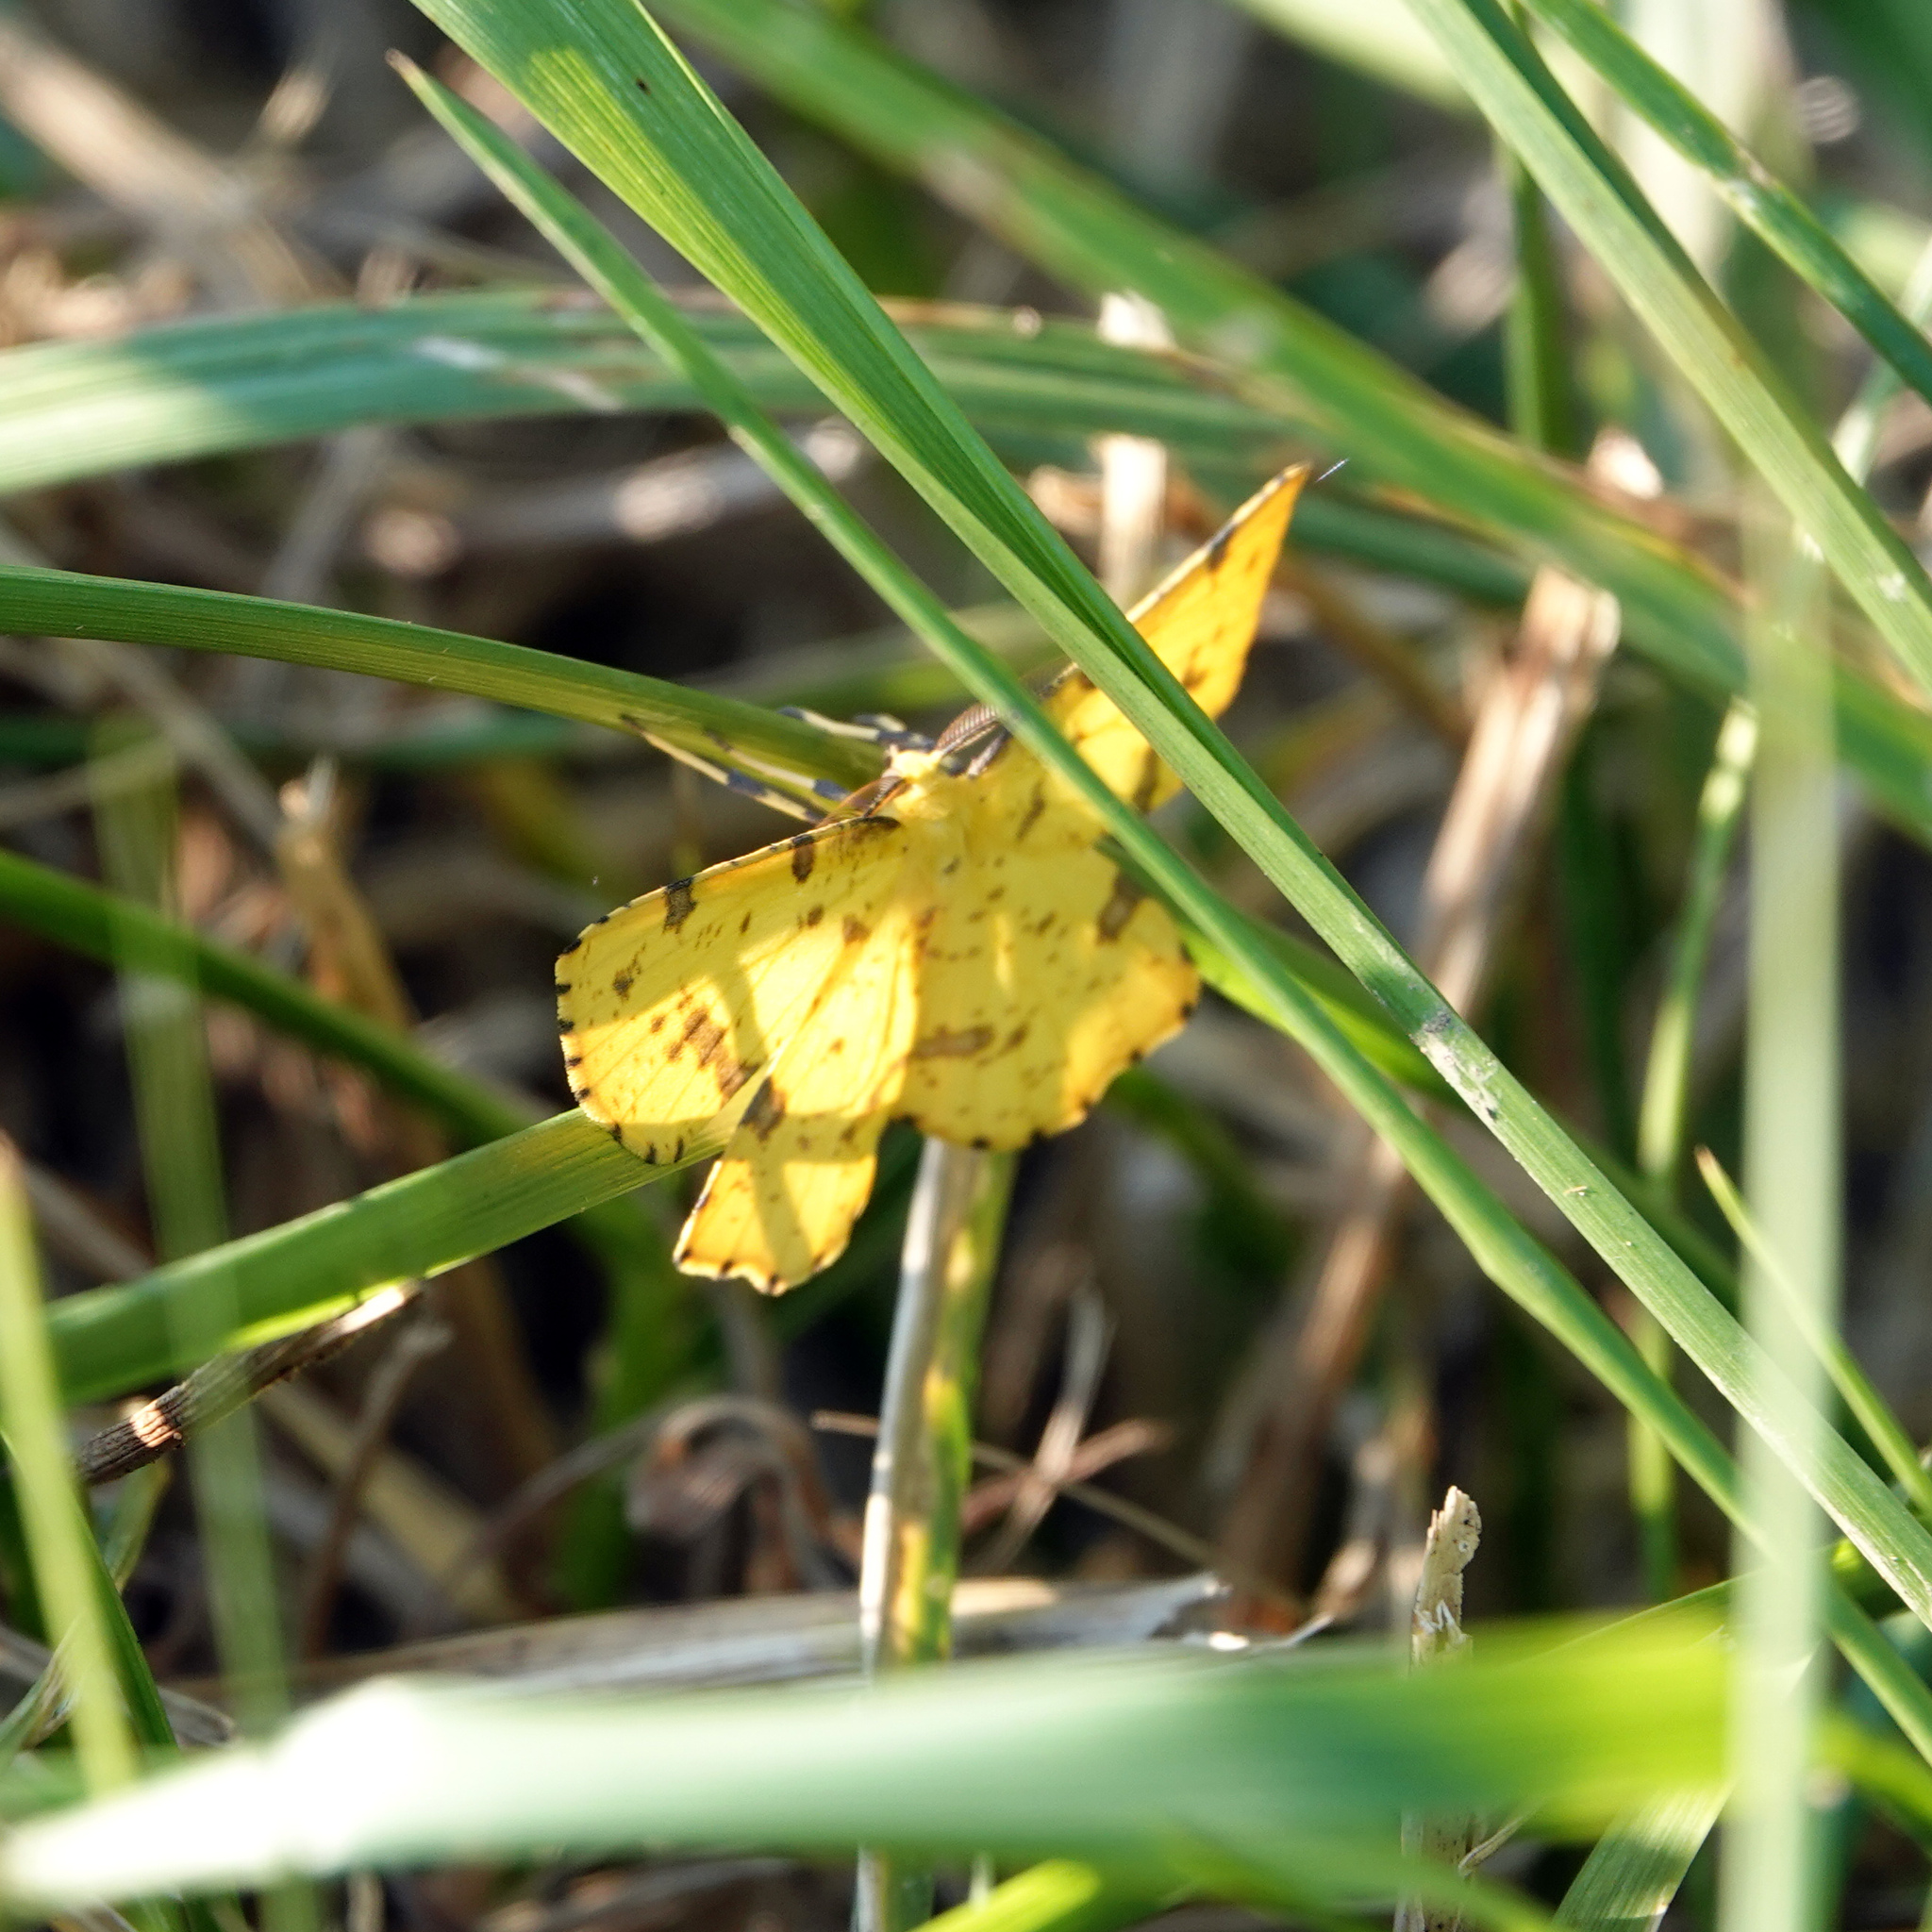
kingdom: Animalia
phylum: Arthropoda
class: Insecta
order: Lepidoptera
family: Geometridae
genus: Xanthotype
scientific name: Xanthotype
